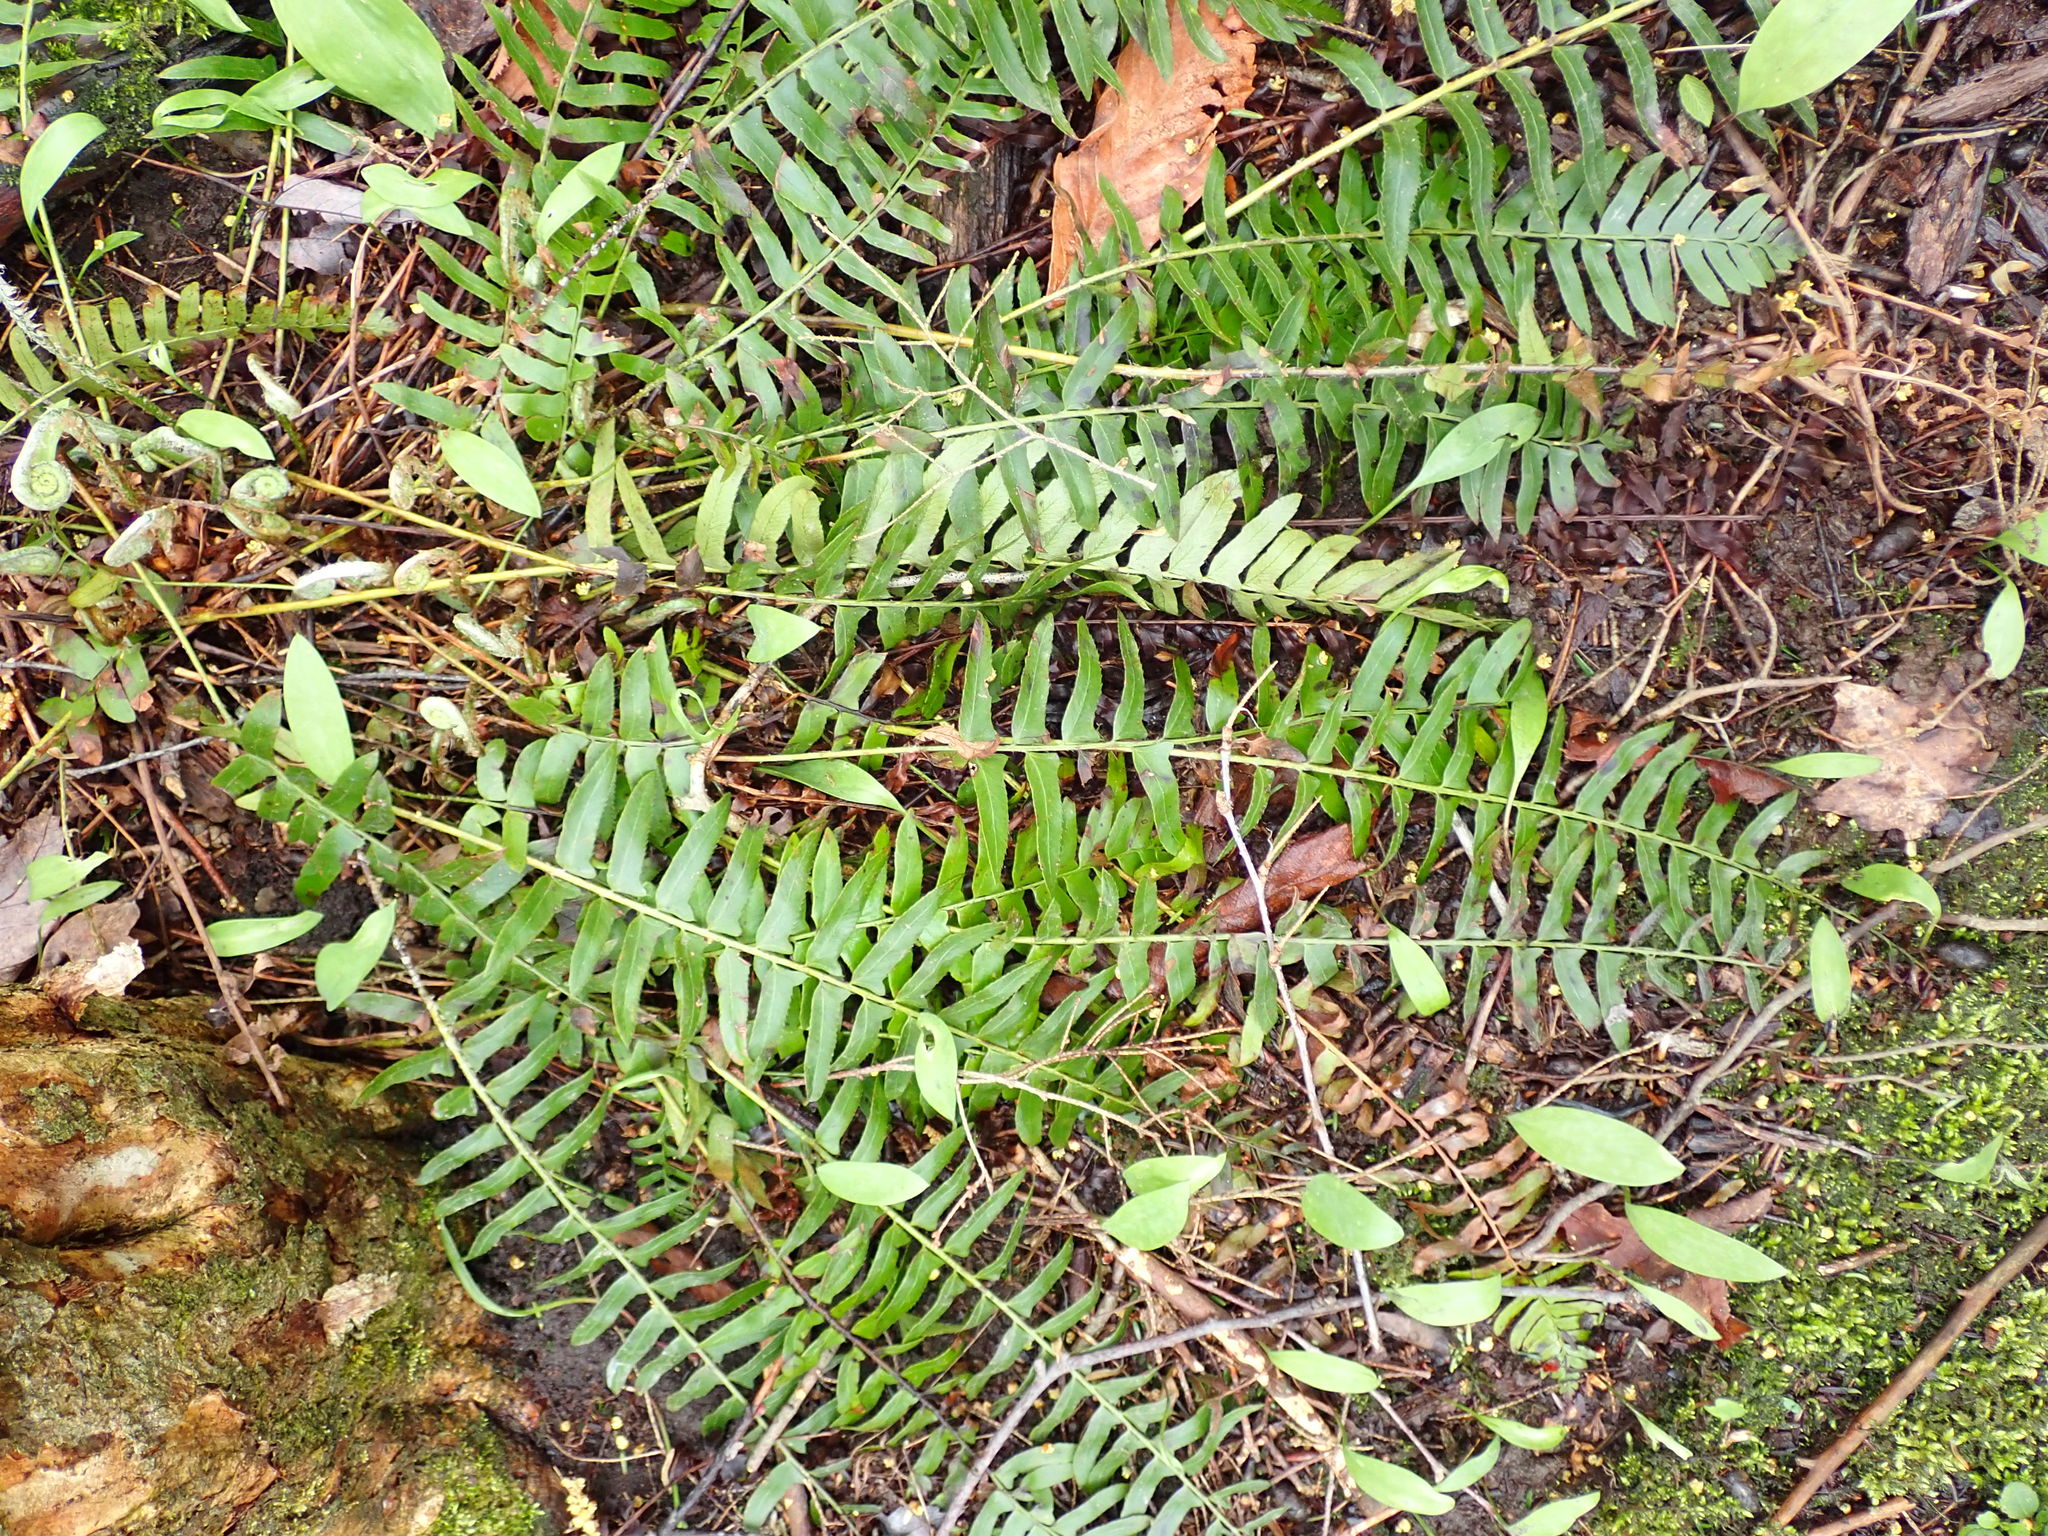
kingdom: Plantae
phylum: Tracheophyta
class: Polypodiopsida
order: Polypodiales
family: Dryopteridaceae
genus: Polystichum
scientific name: Polystichum acrostichoides
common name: Christmas fern
